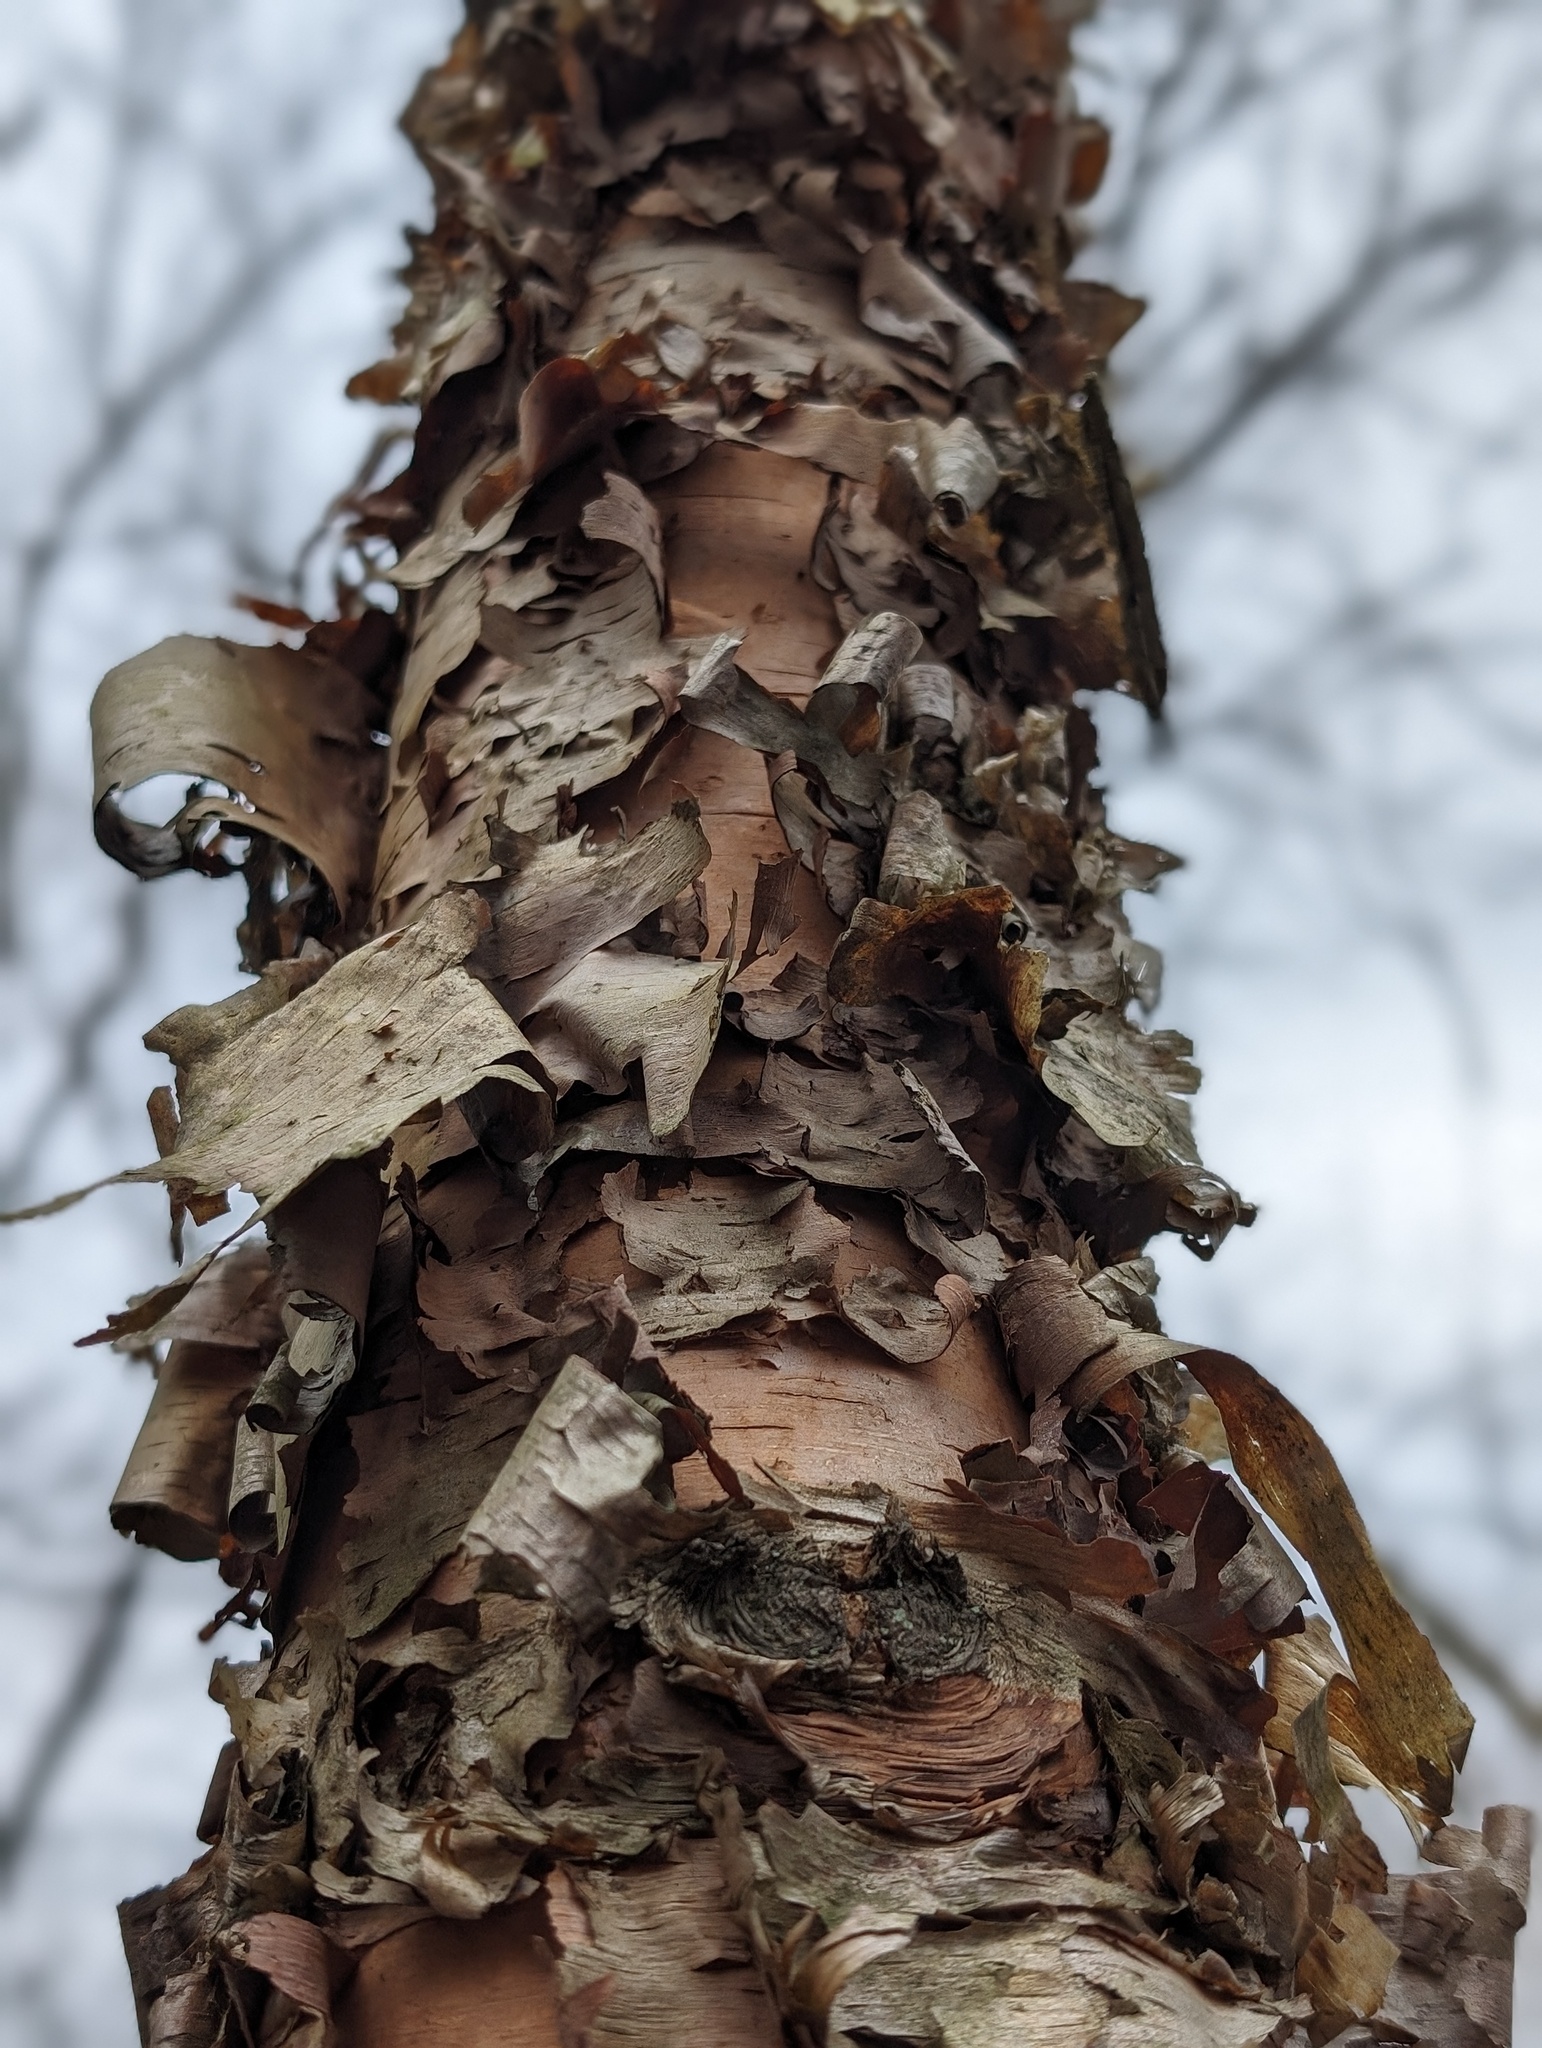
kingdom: Plantae
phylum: Tracheophyta
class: Magnoliopsida
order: Fagales
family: Betulaceae
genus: Betula
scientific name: Betula nigra
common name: Black birch
